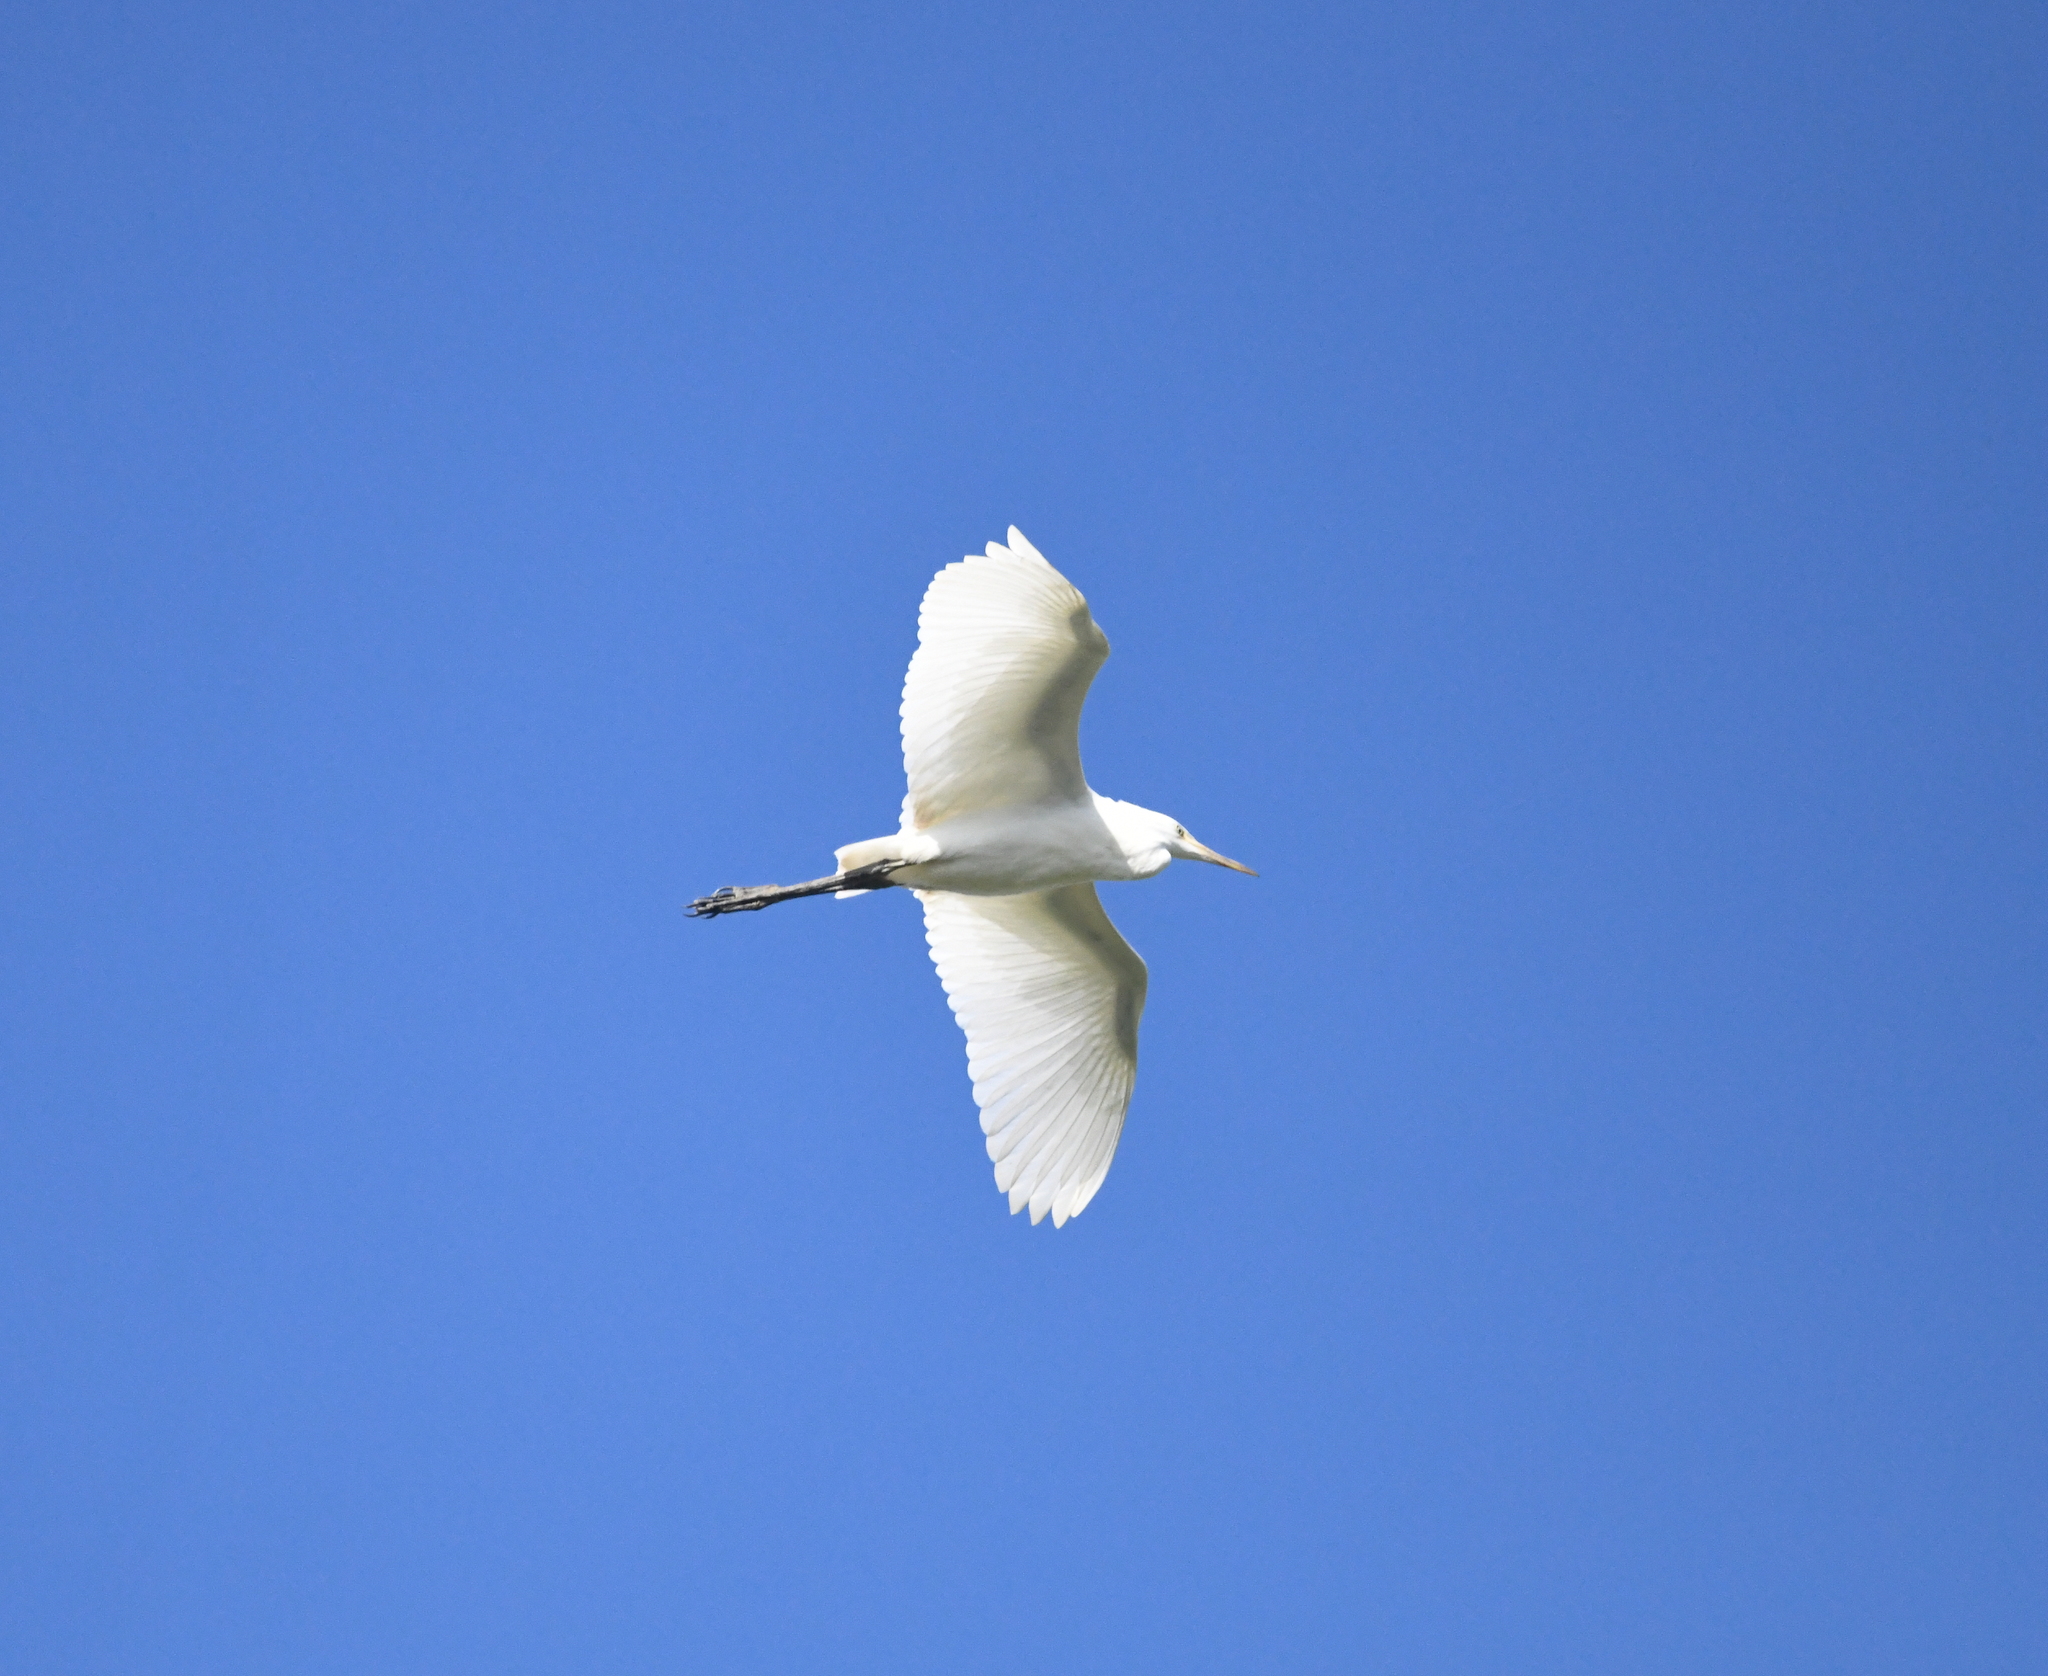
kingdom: Animalia
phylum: Chordata
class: Aves
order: Pelecaniformes
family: Ardeidae
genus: Bubulcus
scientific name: Bubulcus coromandus
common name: Eastern cattle egret
